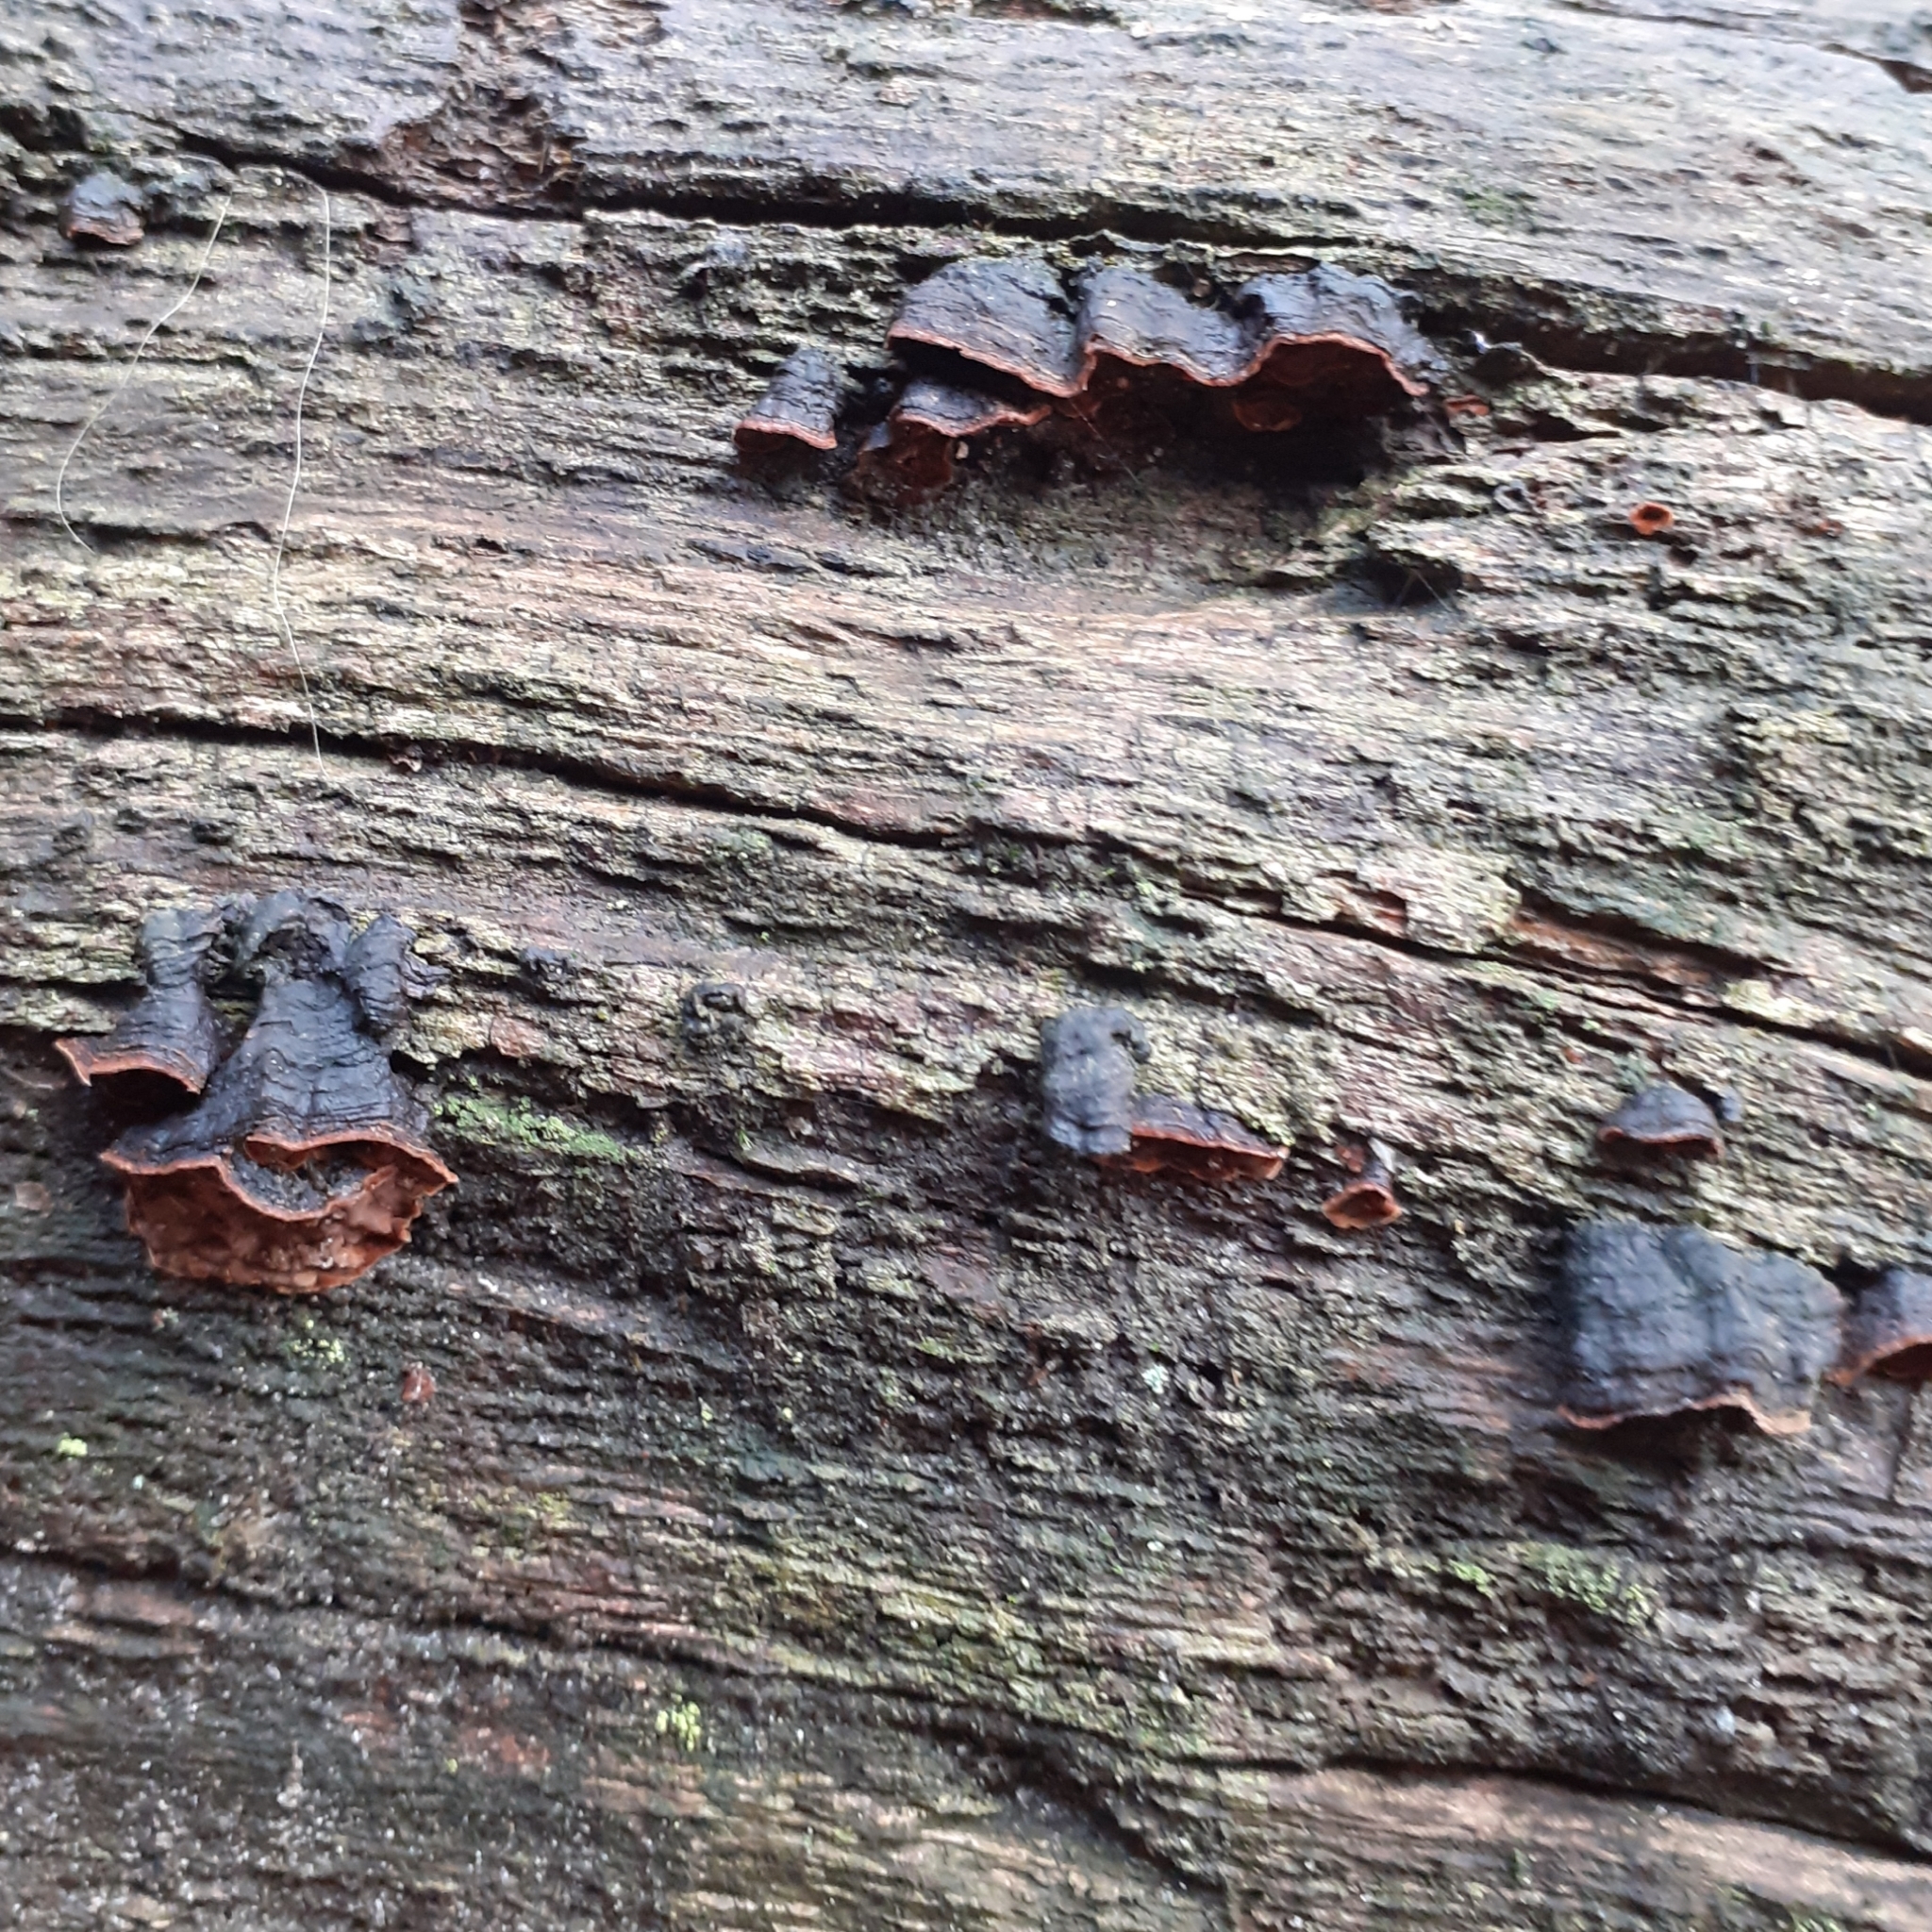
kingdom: Fungi
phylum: Basidiomycota
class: Agaricomycetes
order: Hymenochaetales
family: Hymenochaetaceae
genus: Hymenochaete
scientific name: Hymenochaete rubiginosa
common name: Oak curtain crust
